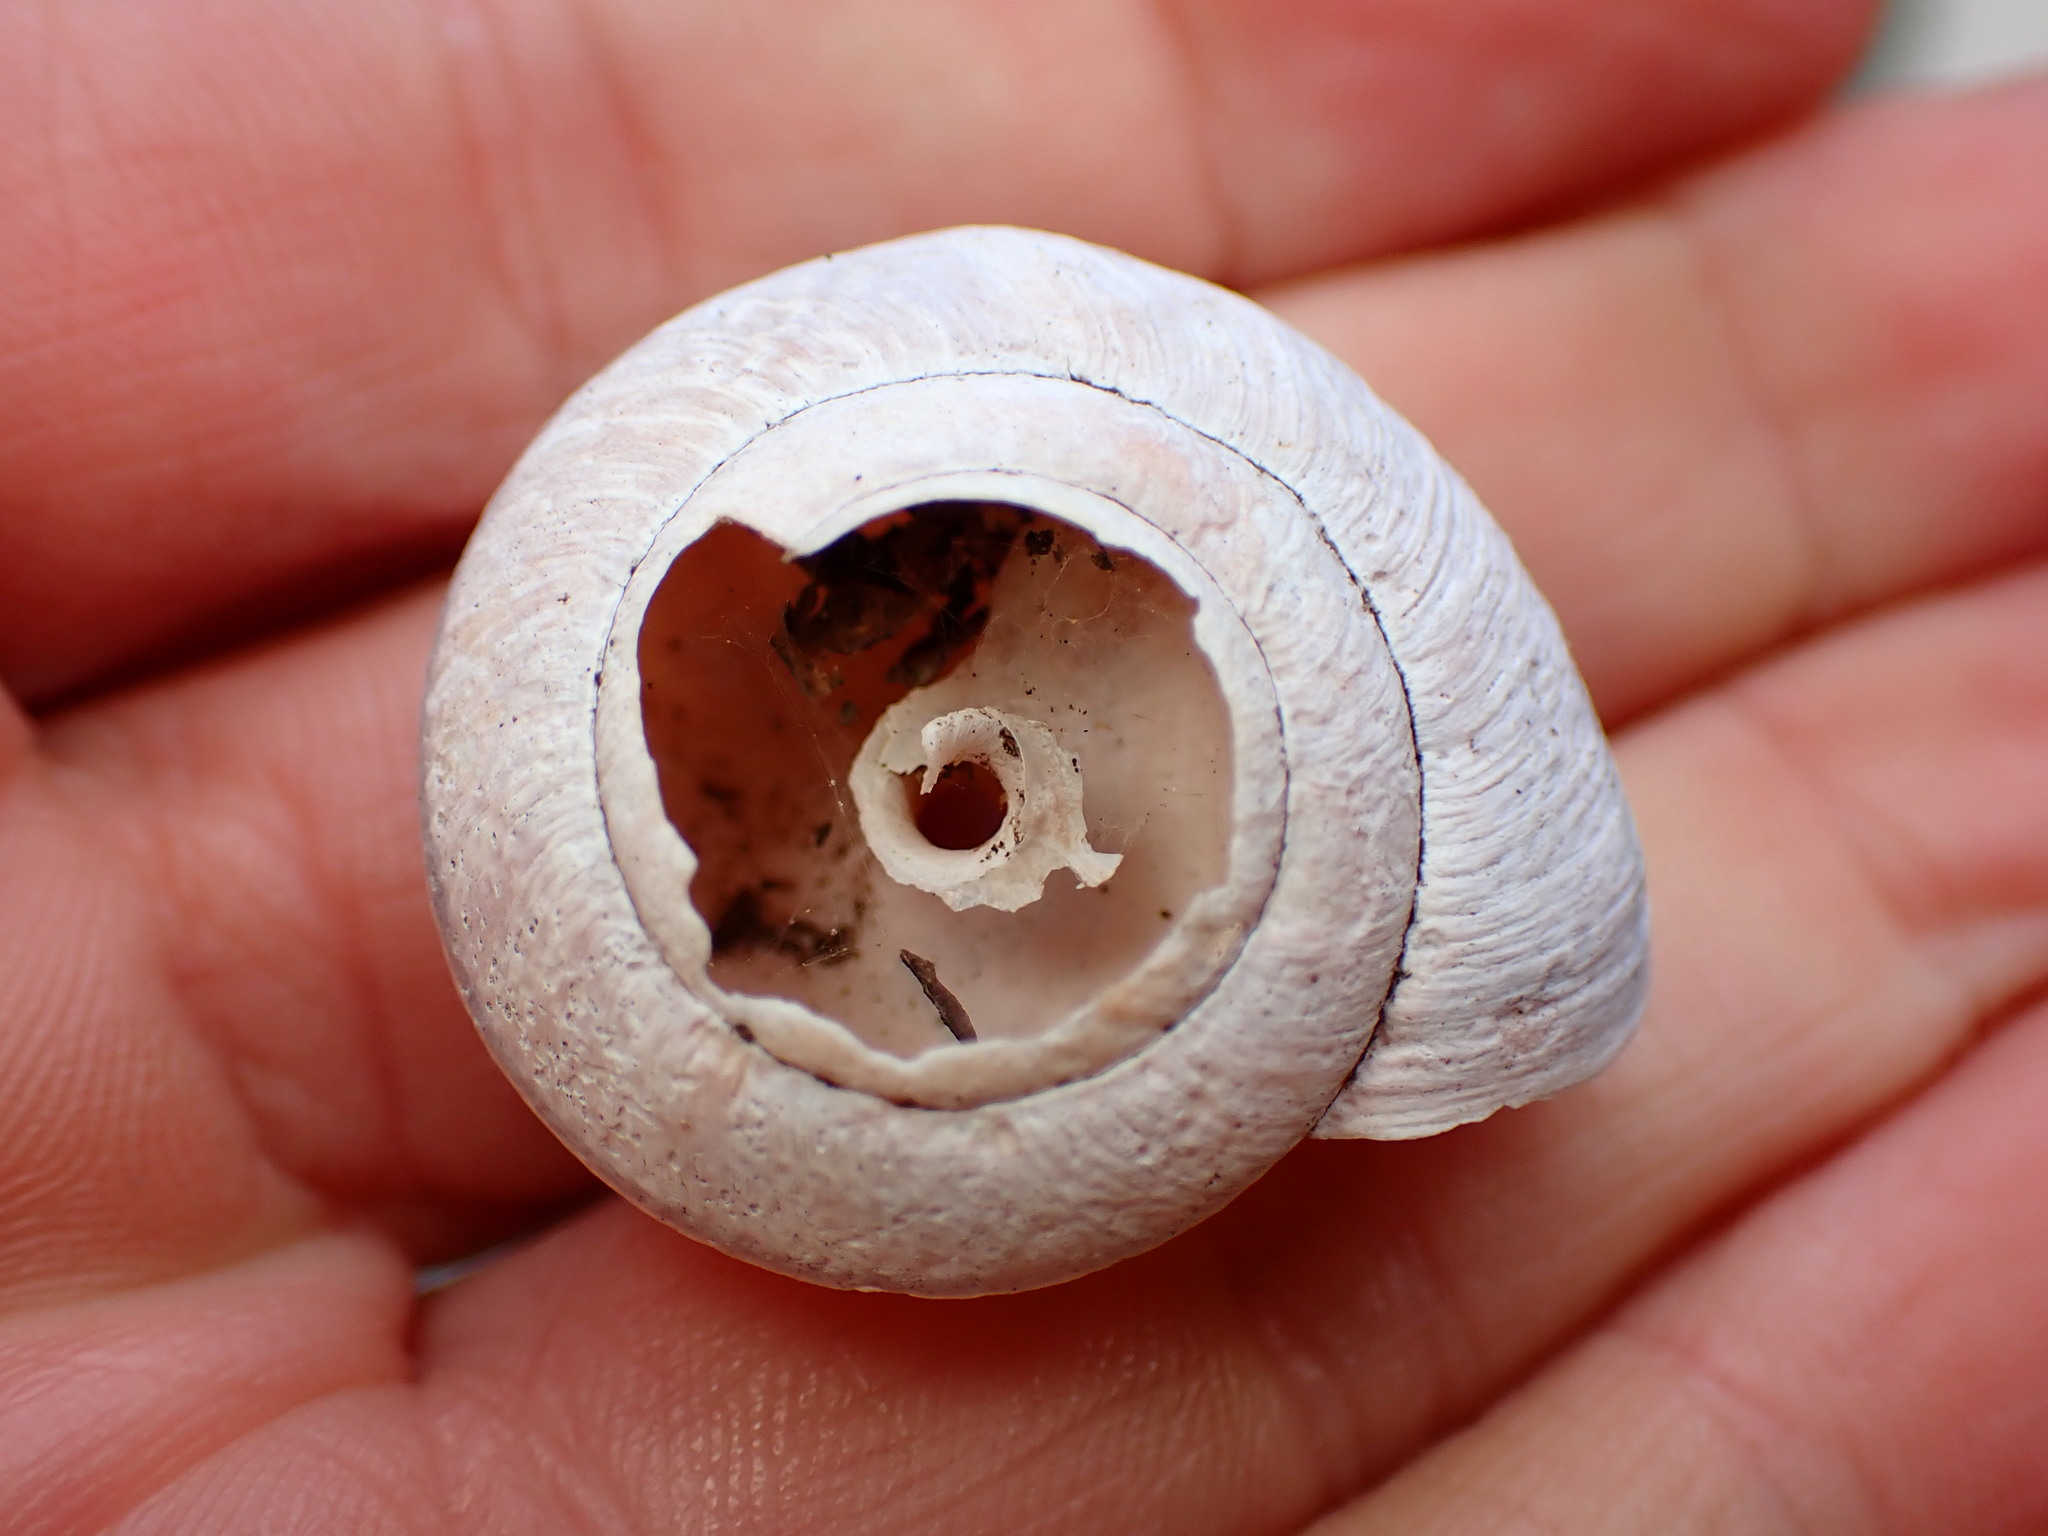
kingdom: Animalia
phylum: Mollusca
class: Gastropoda
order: Stylommatophora
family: Xanthonychidae
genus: Helminthoglypta
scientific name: Helminthoglypta arrosa
